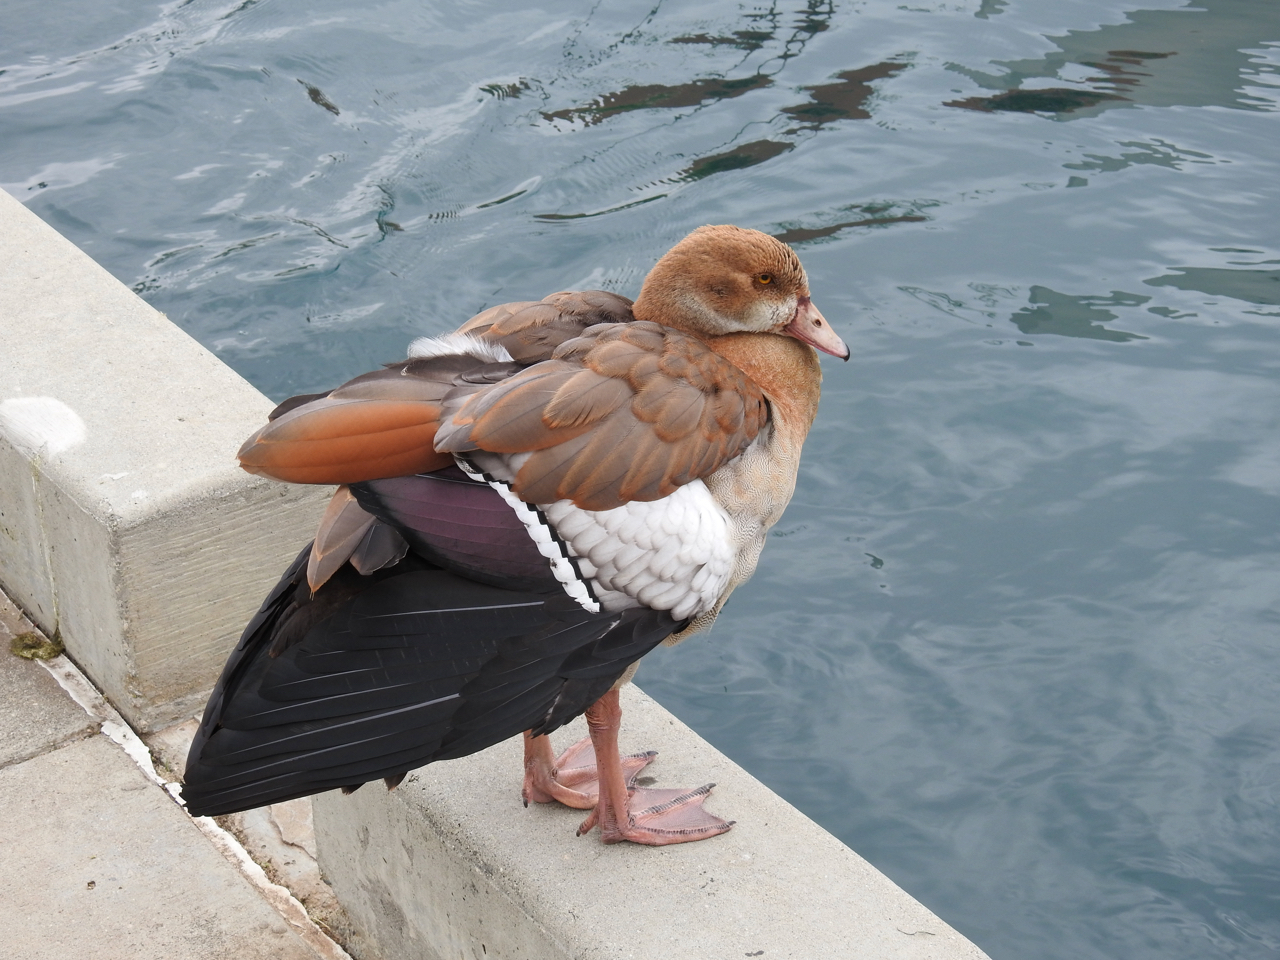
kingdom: Animalia
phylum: Chordata
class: Aves
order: Anseriformes
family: Anatidae
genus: Alopochen
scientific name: Alopochen aegyptiaca
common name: Egyptian goose
